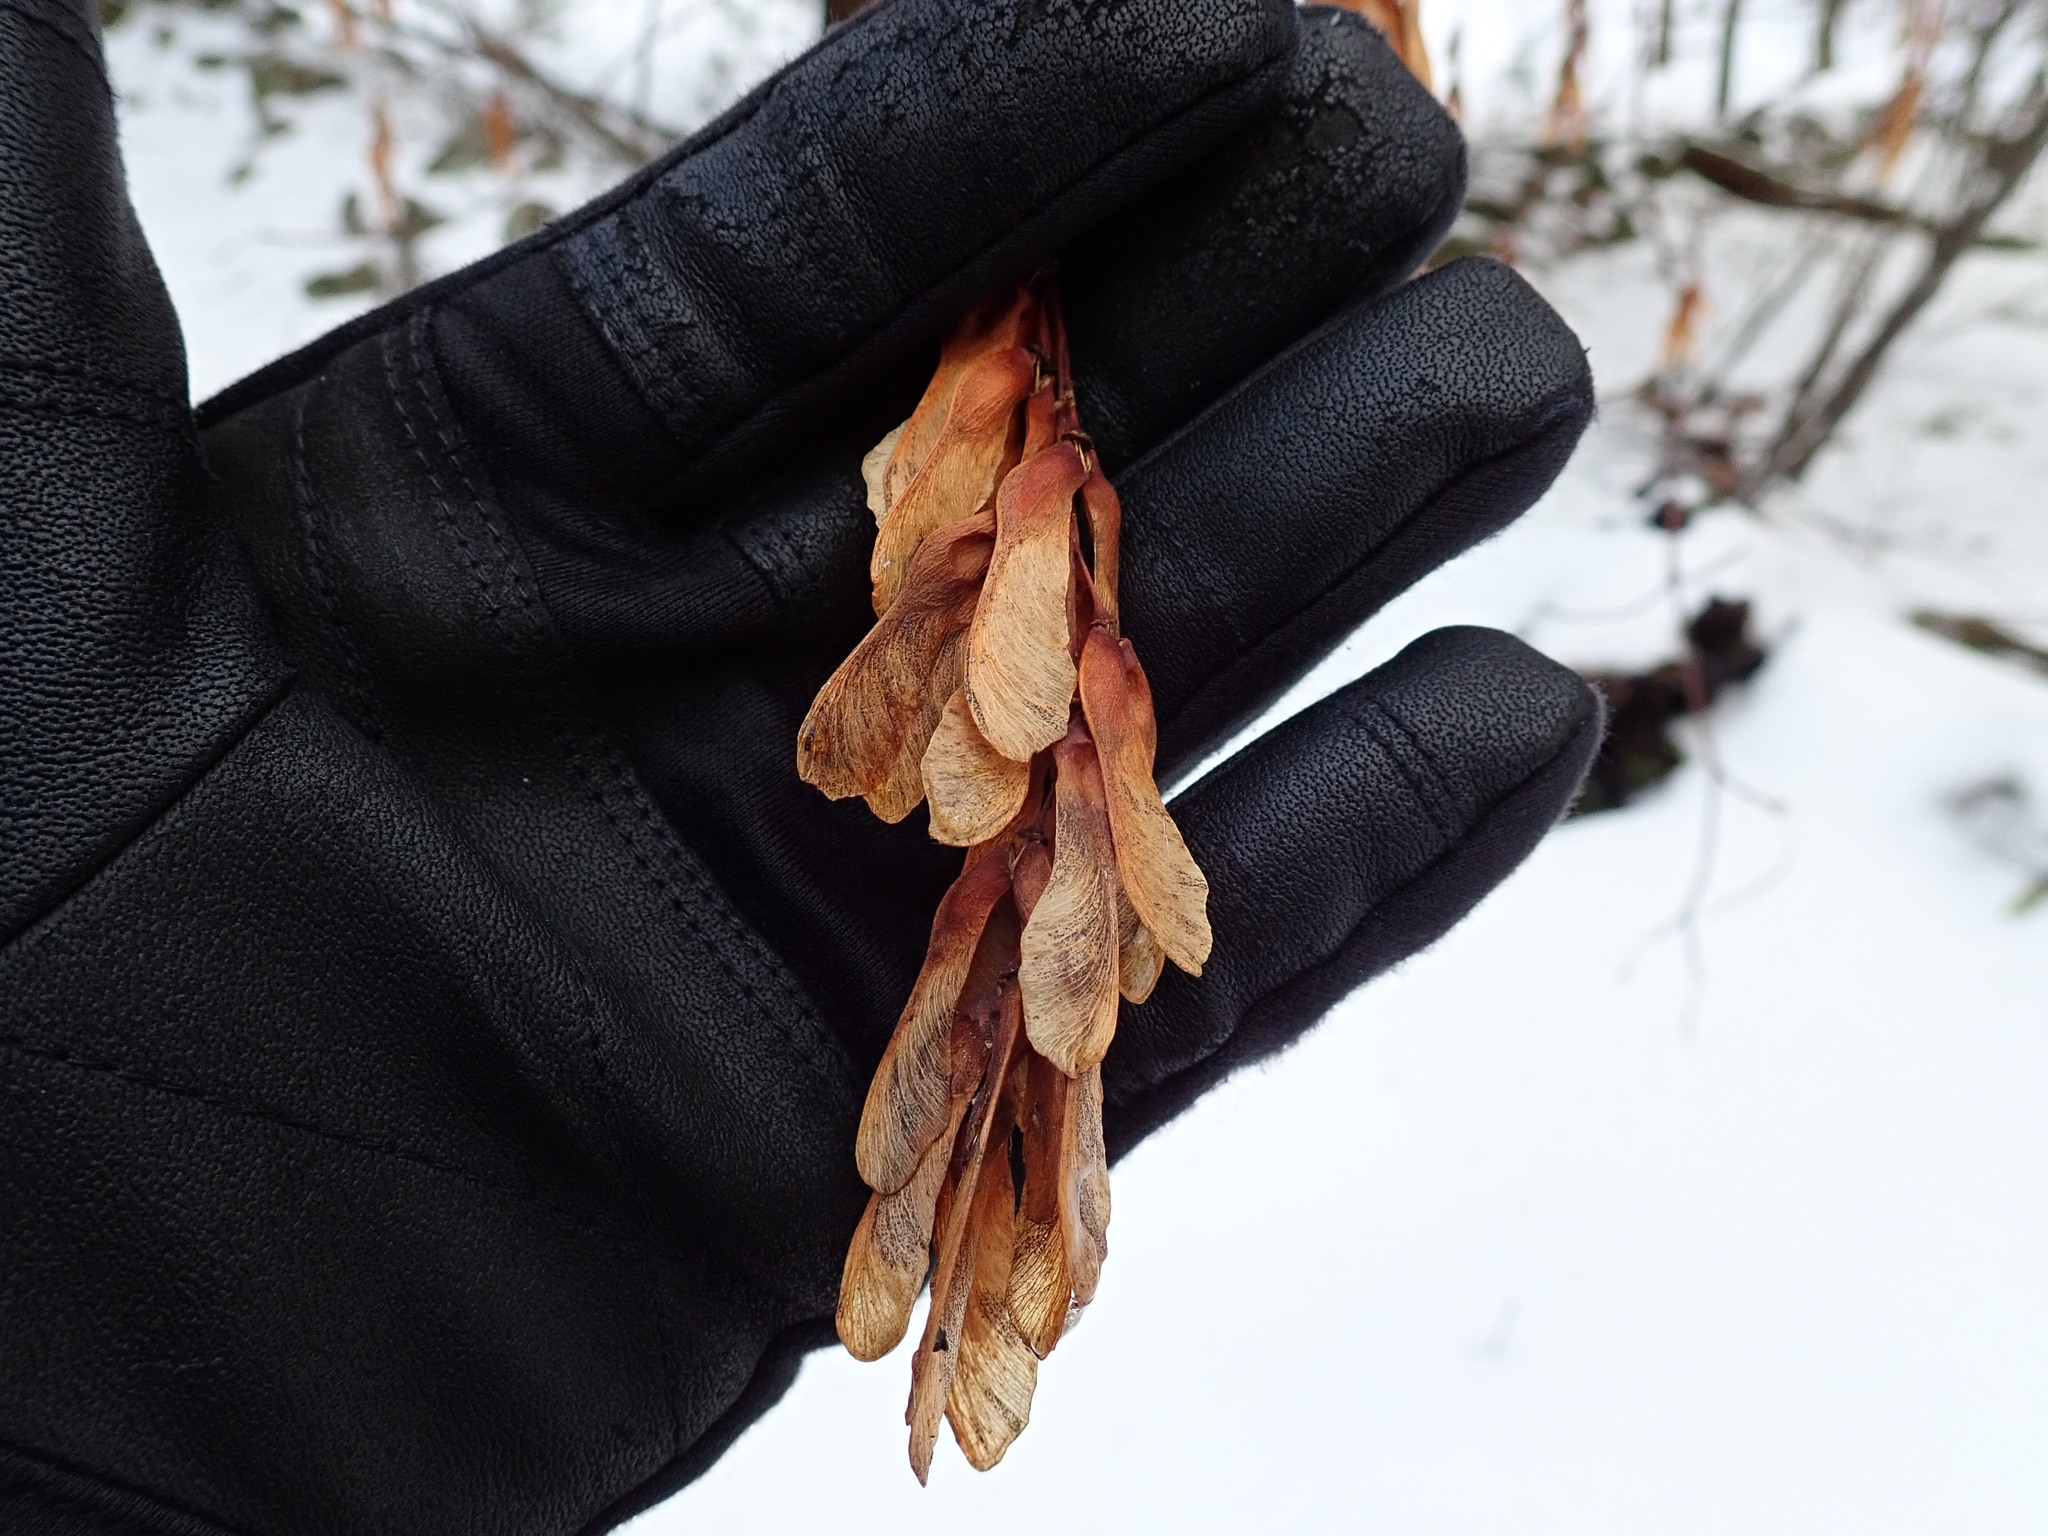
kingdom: Plantae
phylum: Tracheophyta
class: Magnoliopsida
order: Sapindales
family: Sapindaceae
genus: Acer
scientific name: Acer pensylvanicum
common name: Moosewood
